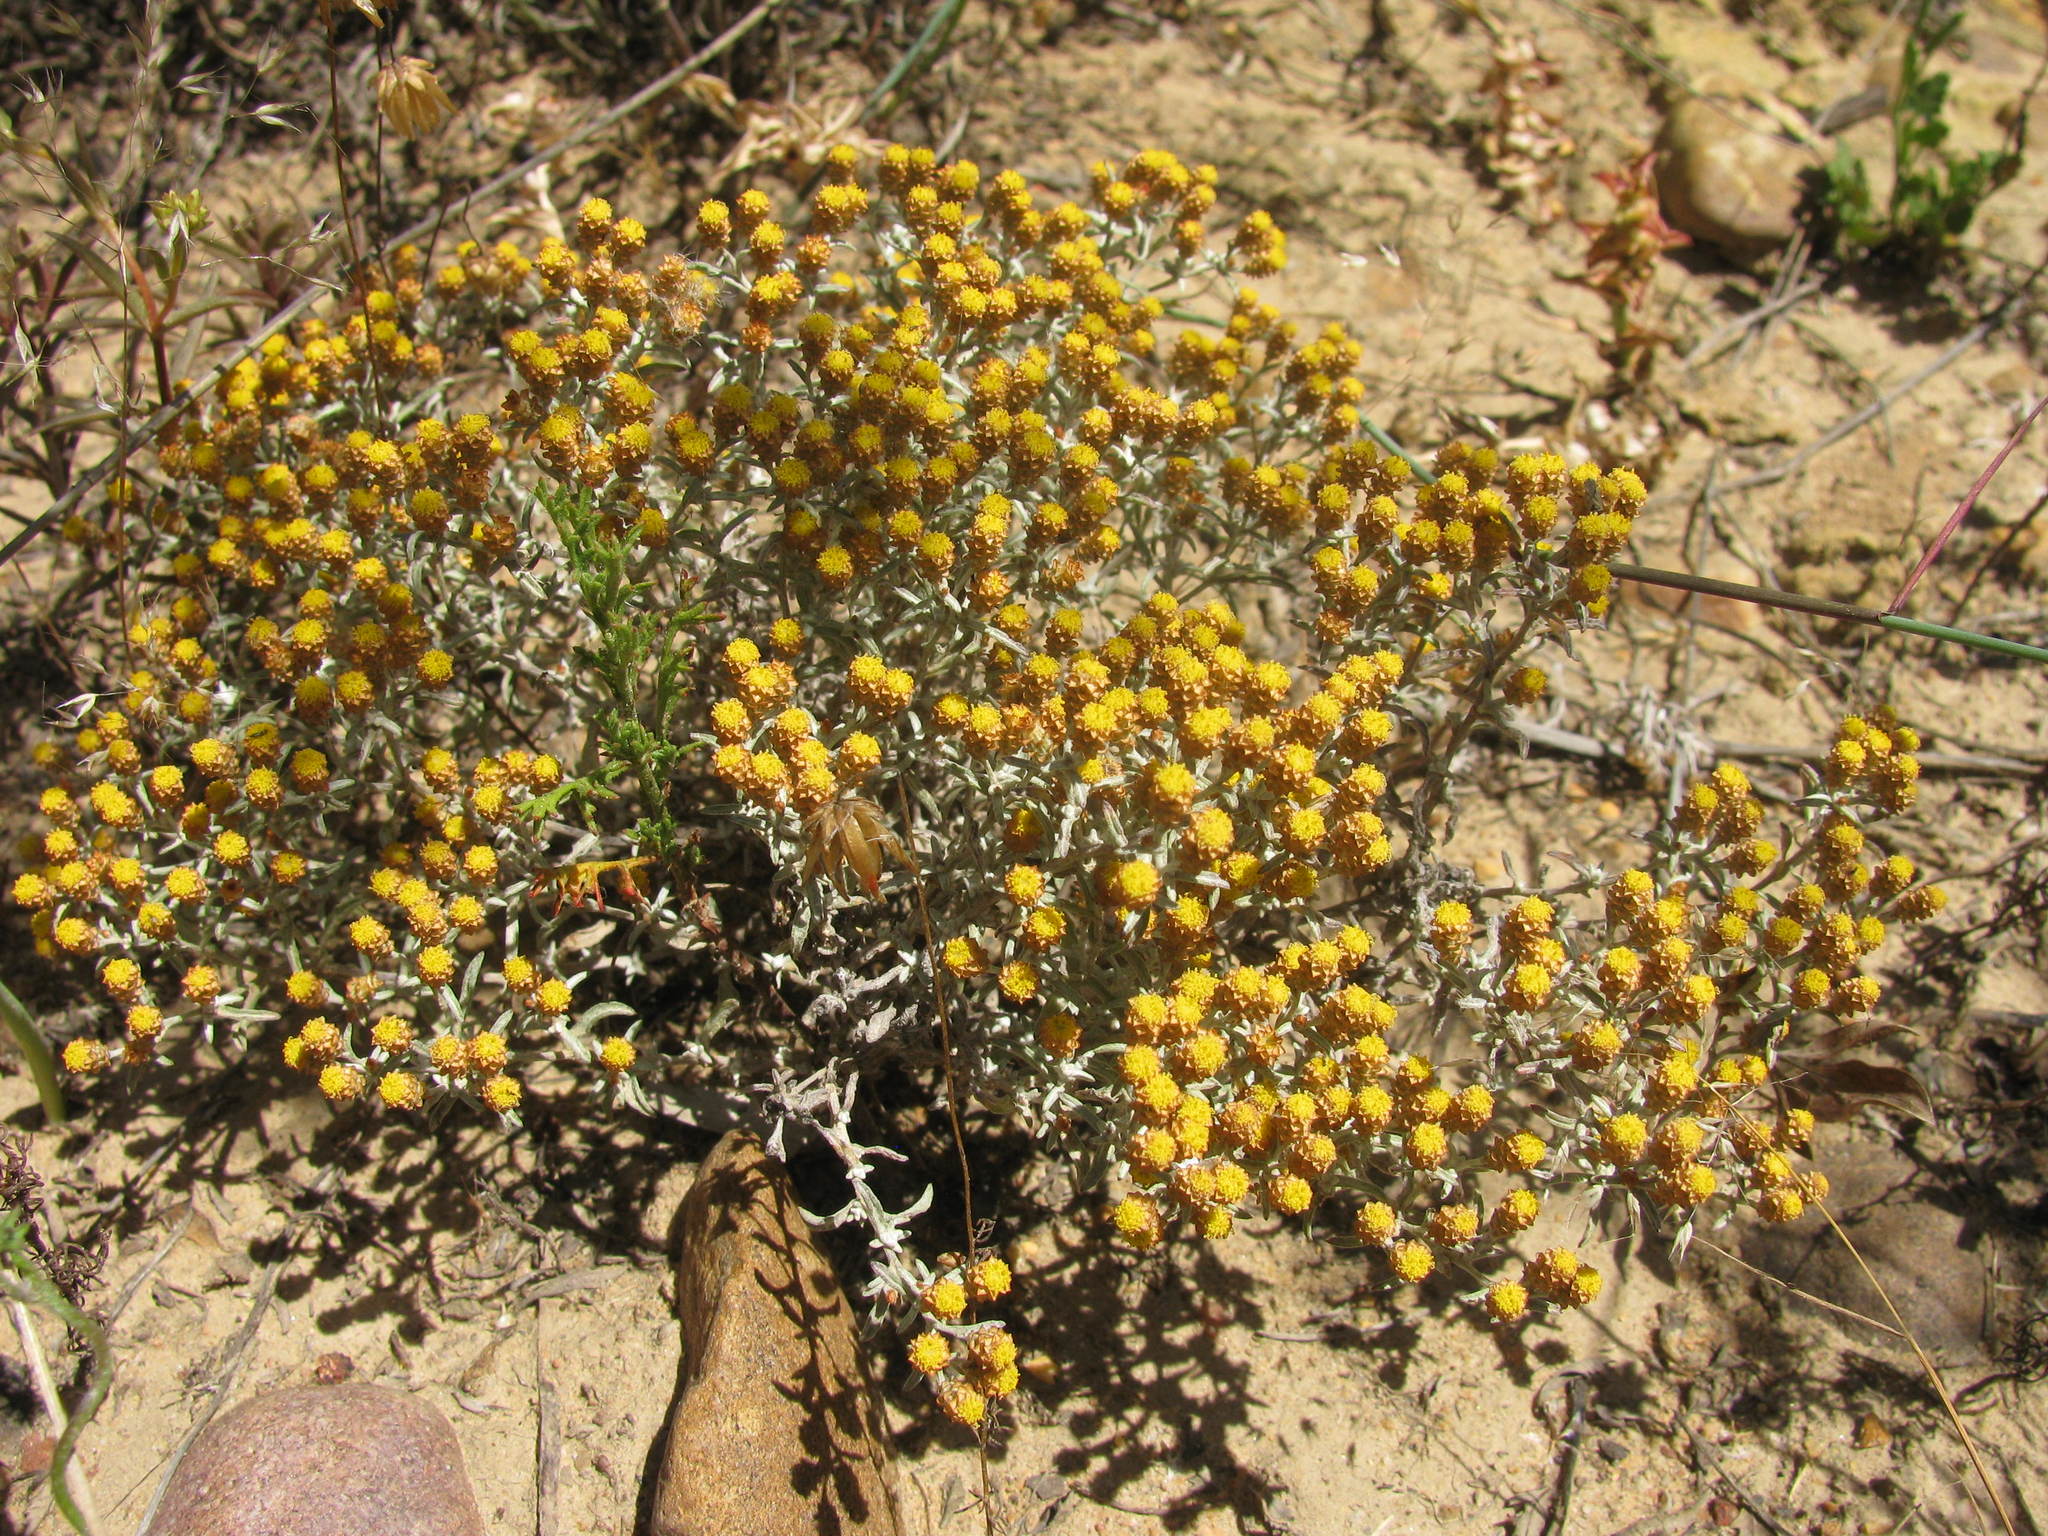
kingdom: Plantae
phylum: Tracheophyta
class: Magnoliopsida
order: Asterales
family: Asteraceae
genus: Helichrysum
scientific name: Helichrysum cylindriflorum
